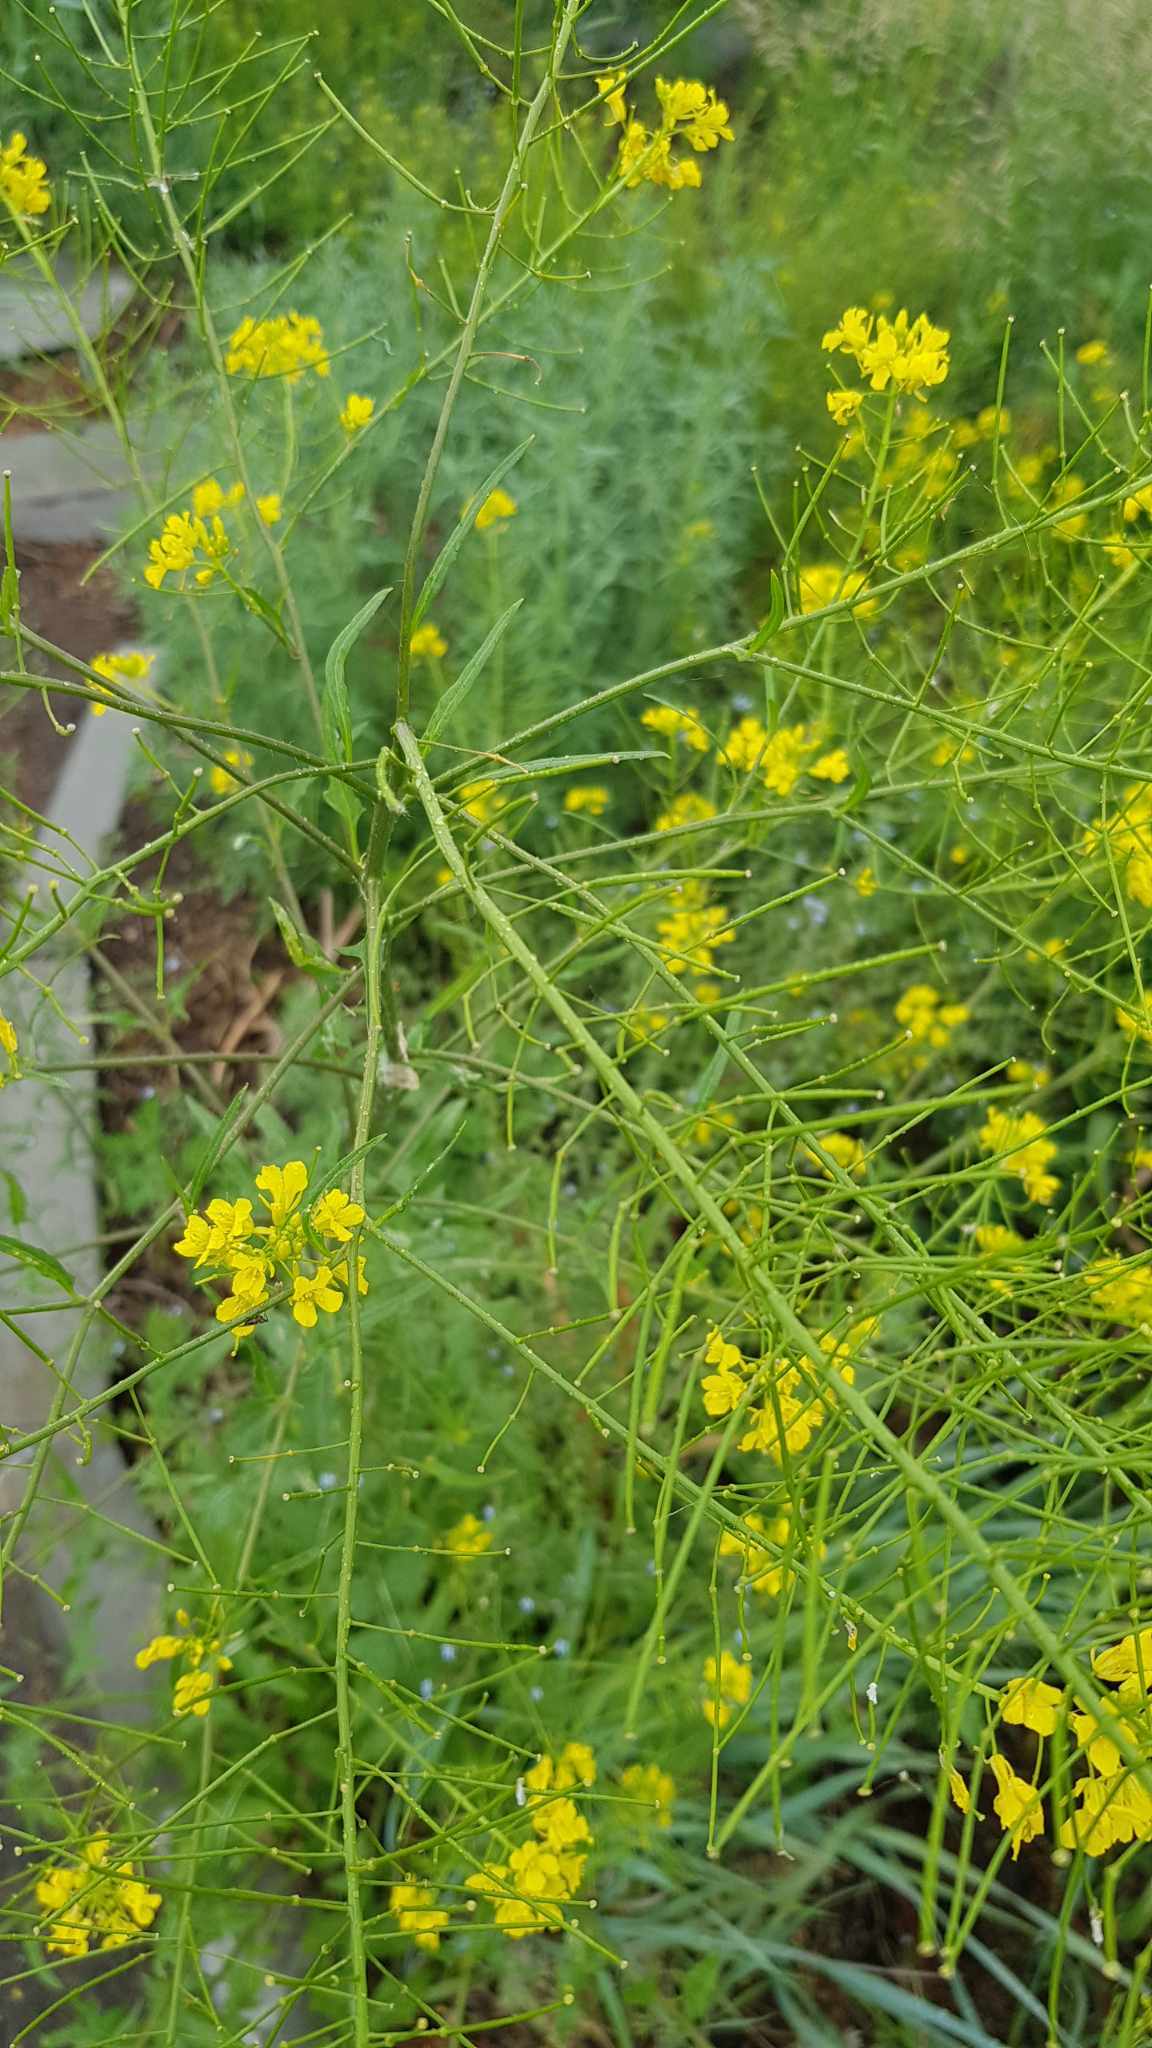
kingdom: Plantae
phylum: Tracheophyta
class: Magnoliopsida
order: Brassicales
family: Brassicaceae
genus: Sisymbrium
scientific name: Sisymbrium loeselii
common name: False london-rocket
